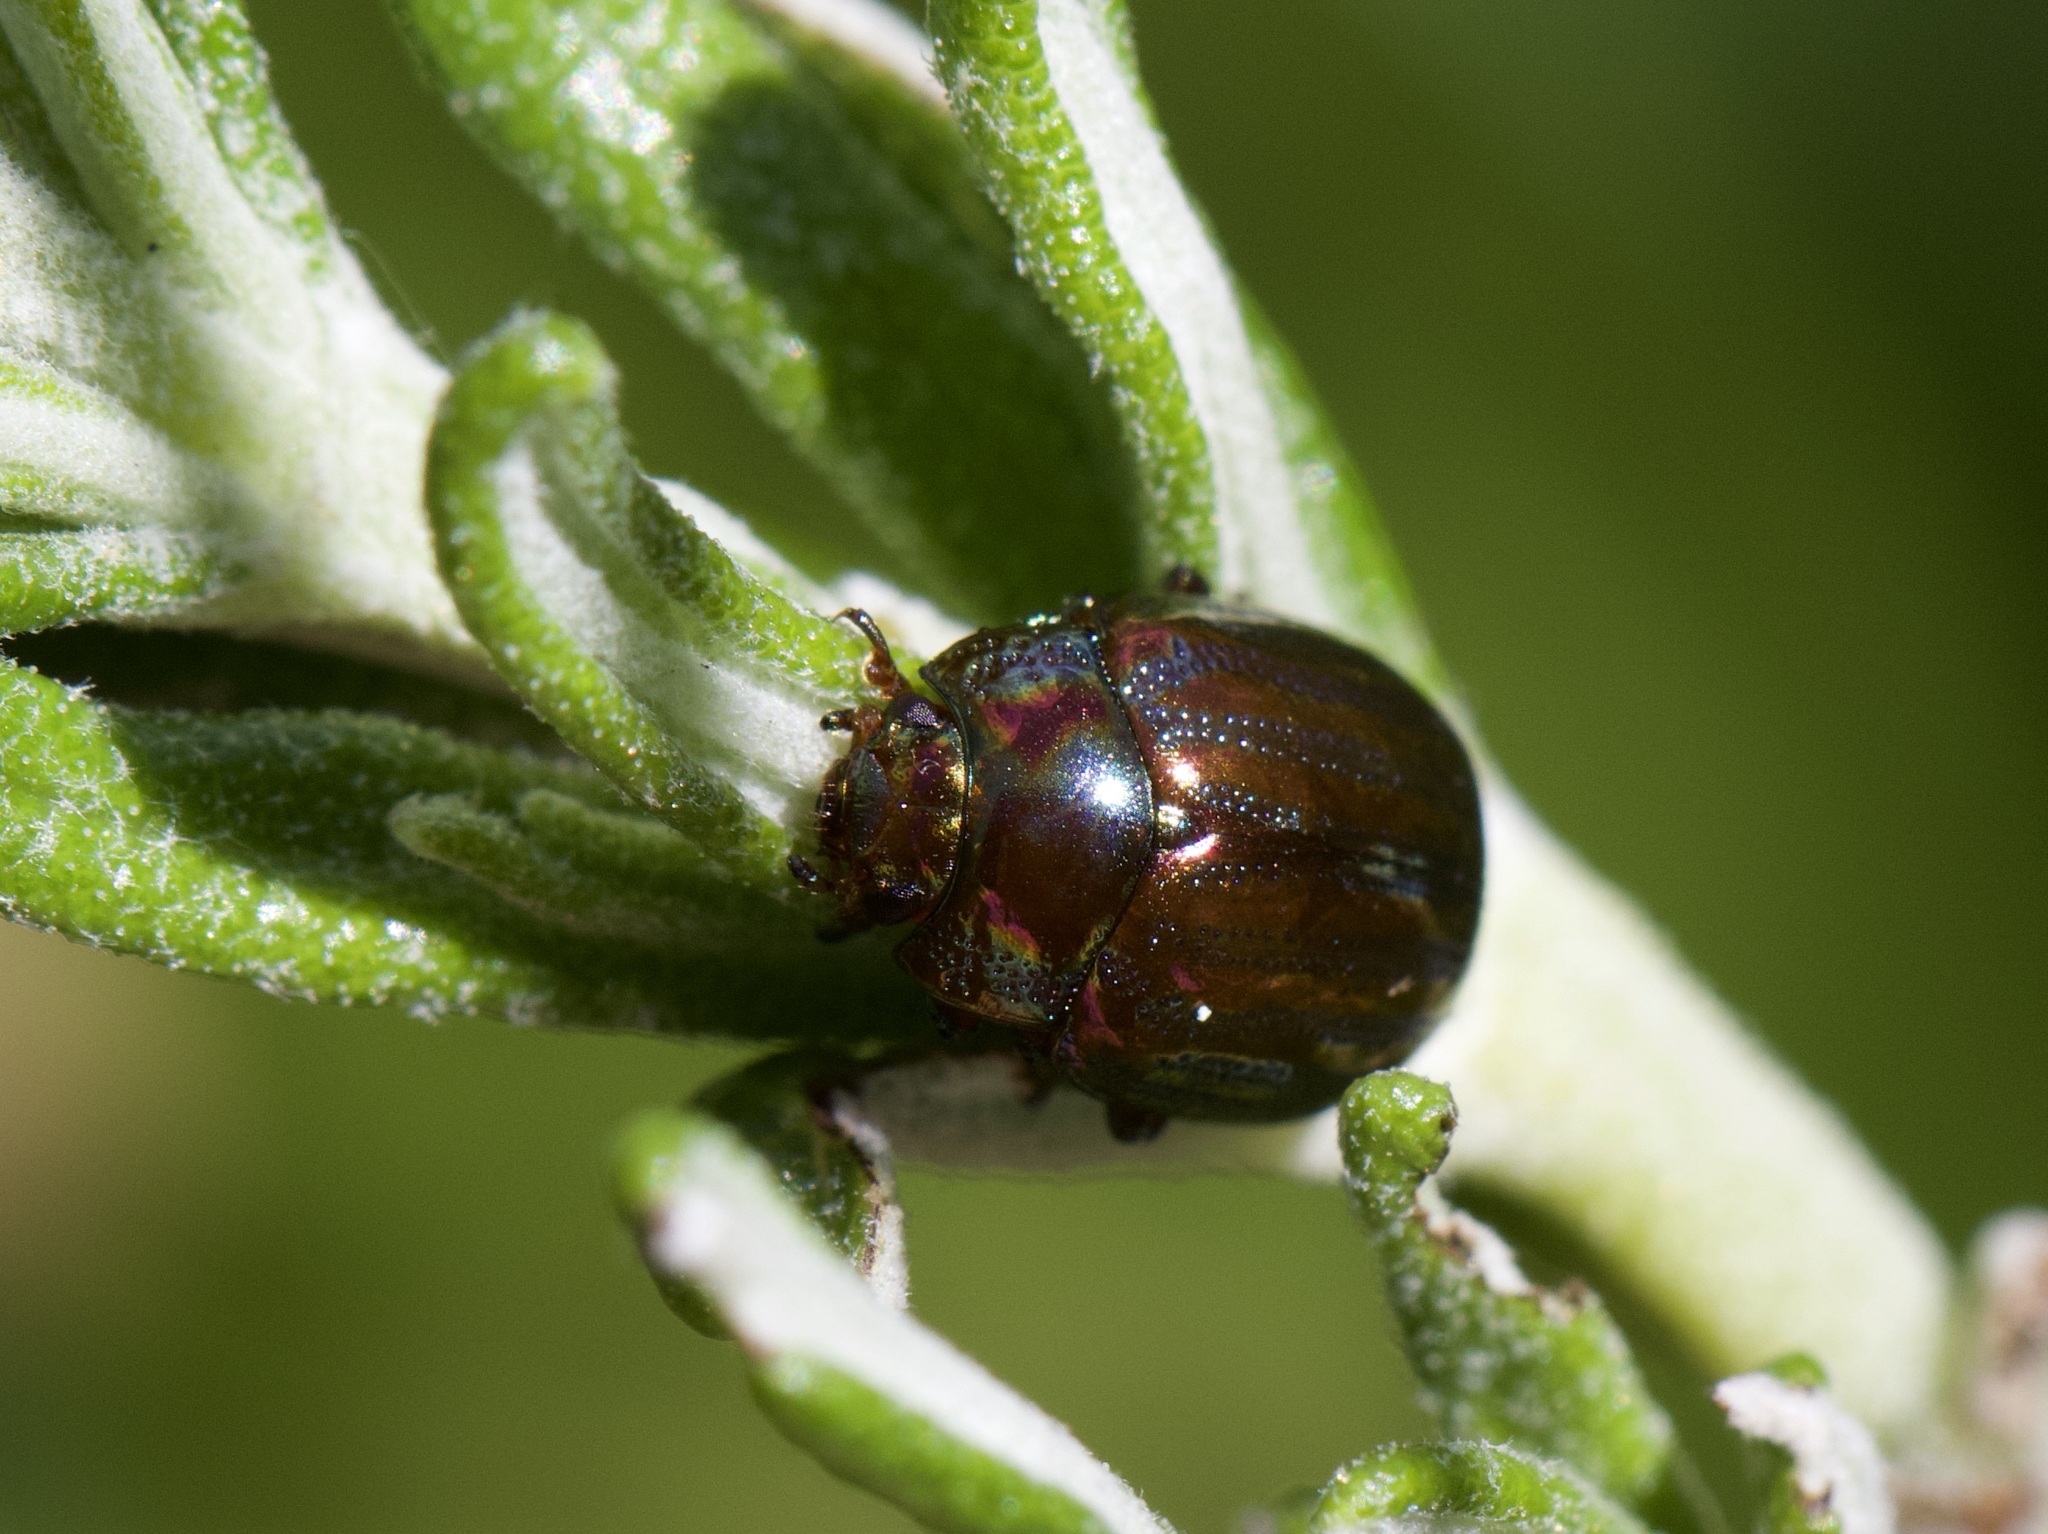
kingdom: Animalia
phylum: Arthropoda
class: Insecta
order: Coleoptera
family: Chrysomelidae
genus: Chrysolina
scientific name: Chrysolina americana
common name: Rosemary beetle
